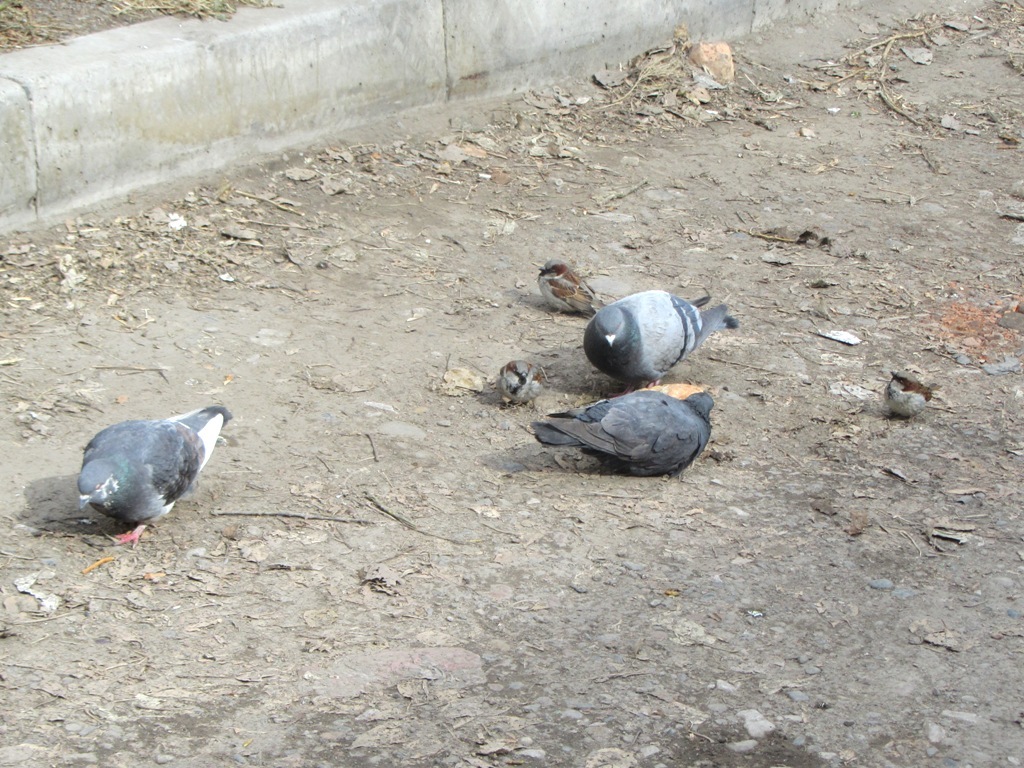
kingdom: Animalia
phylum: Chordata
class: Aves
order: Columbiformes
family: Columbidae
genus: Columba
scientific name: Columba livia
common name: Rock pigeon
